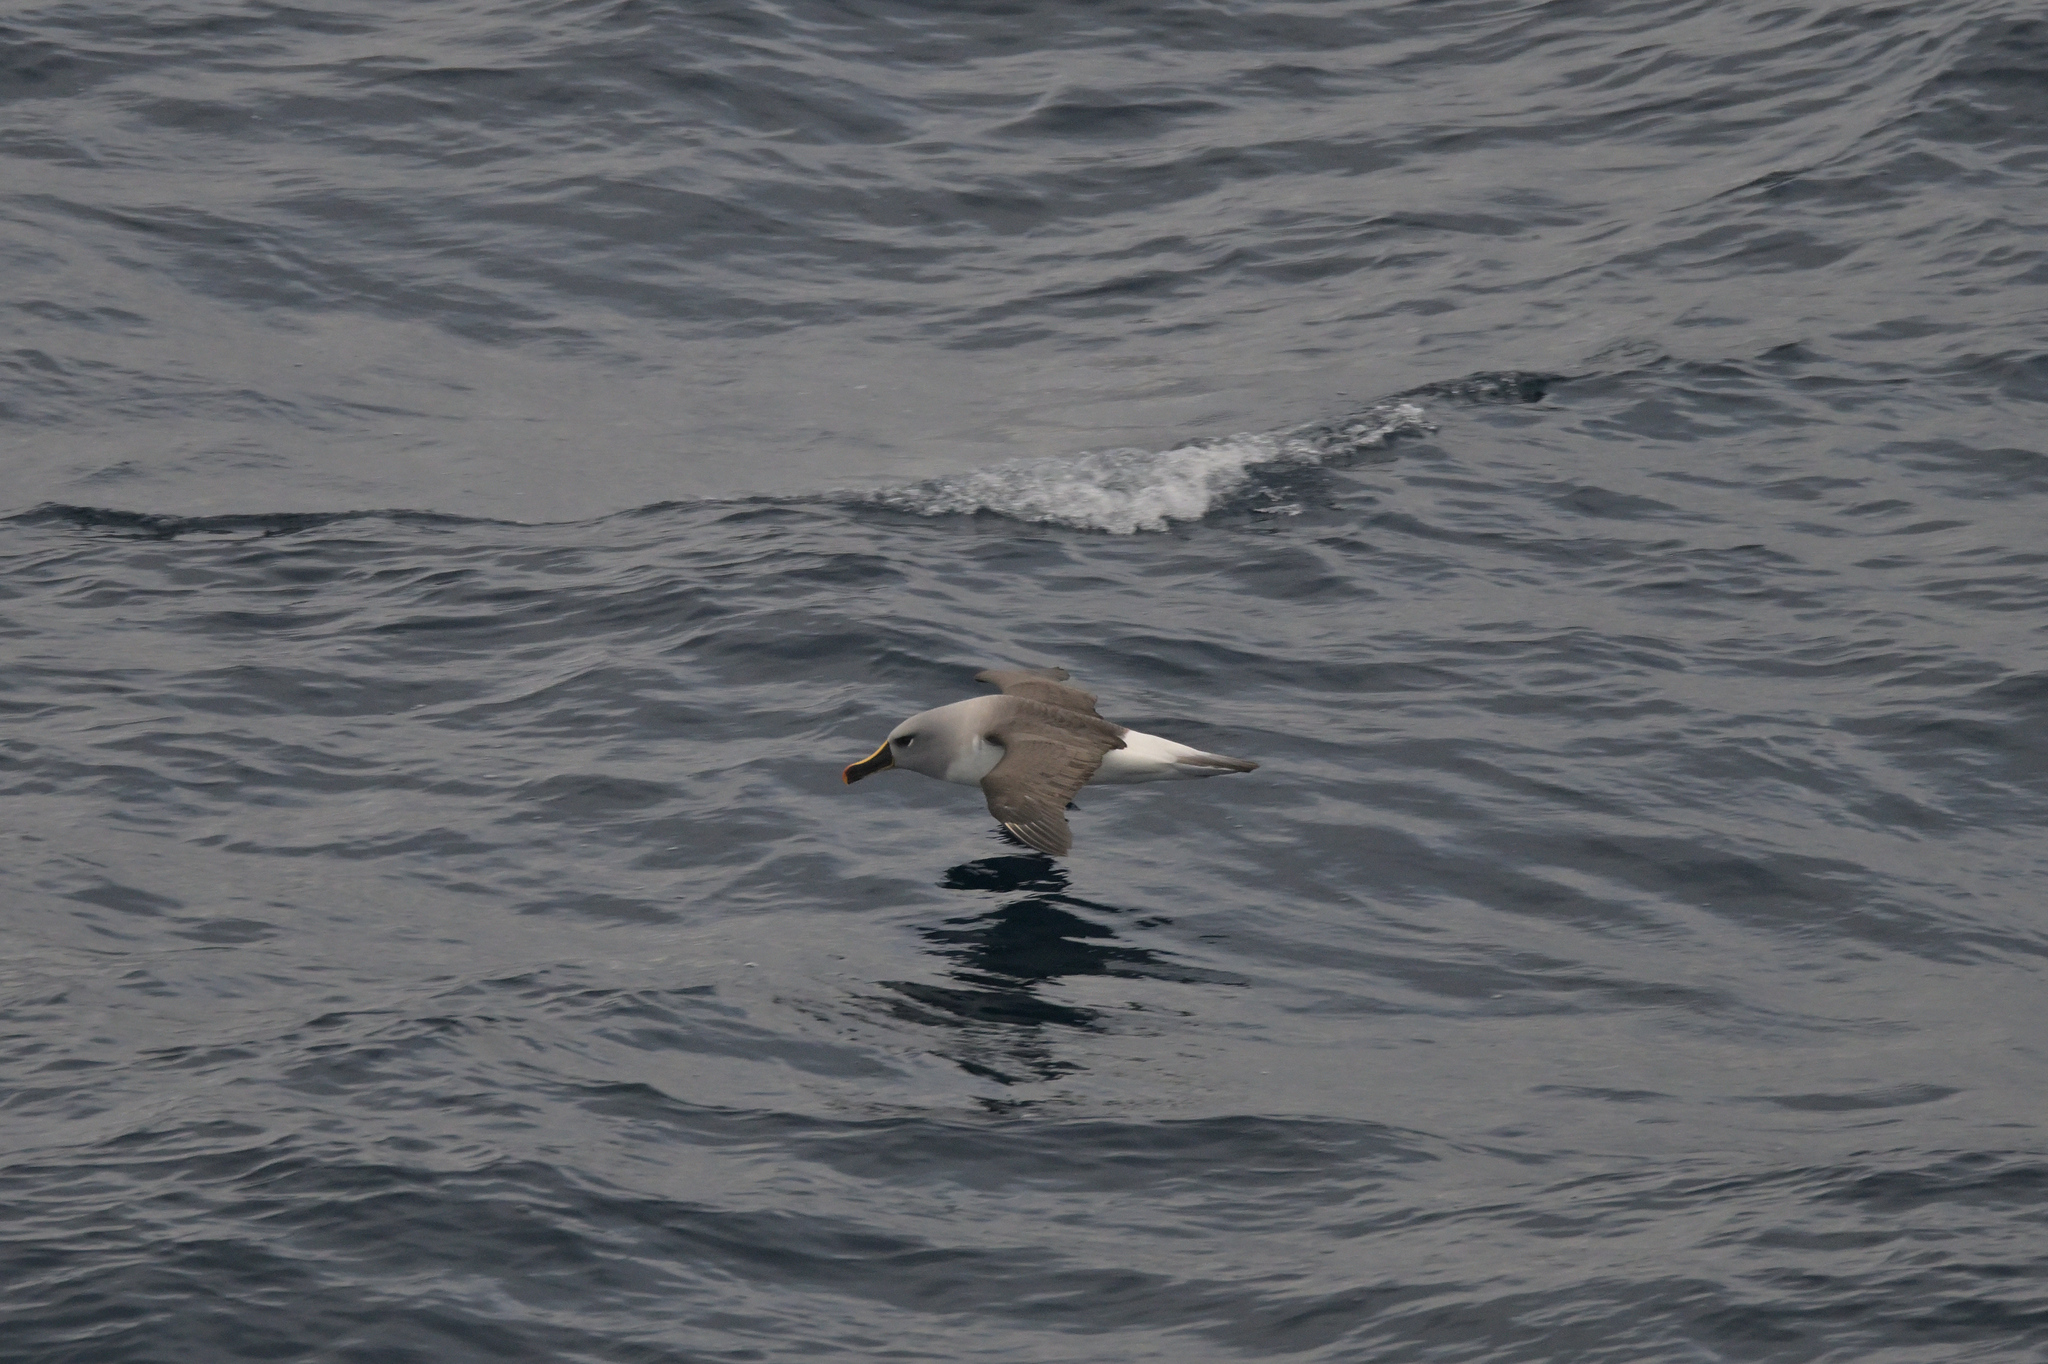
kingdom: Animalia
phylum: Chordata
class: Aves
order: Procellariiformes
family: Diomedeidae
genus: Thalassarche
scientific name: Thalassarche chrysostoma
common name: Grey-headed albatross
